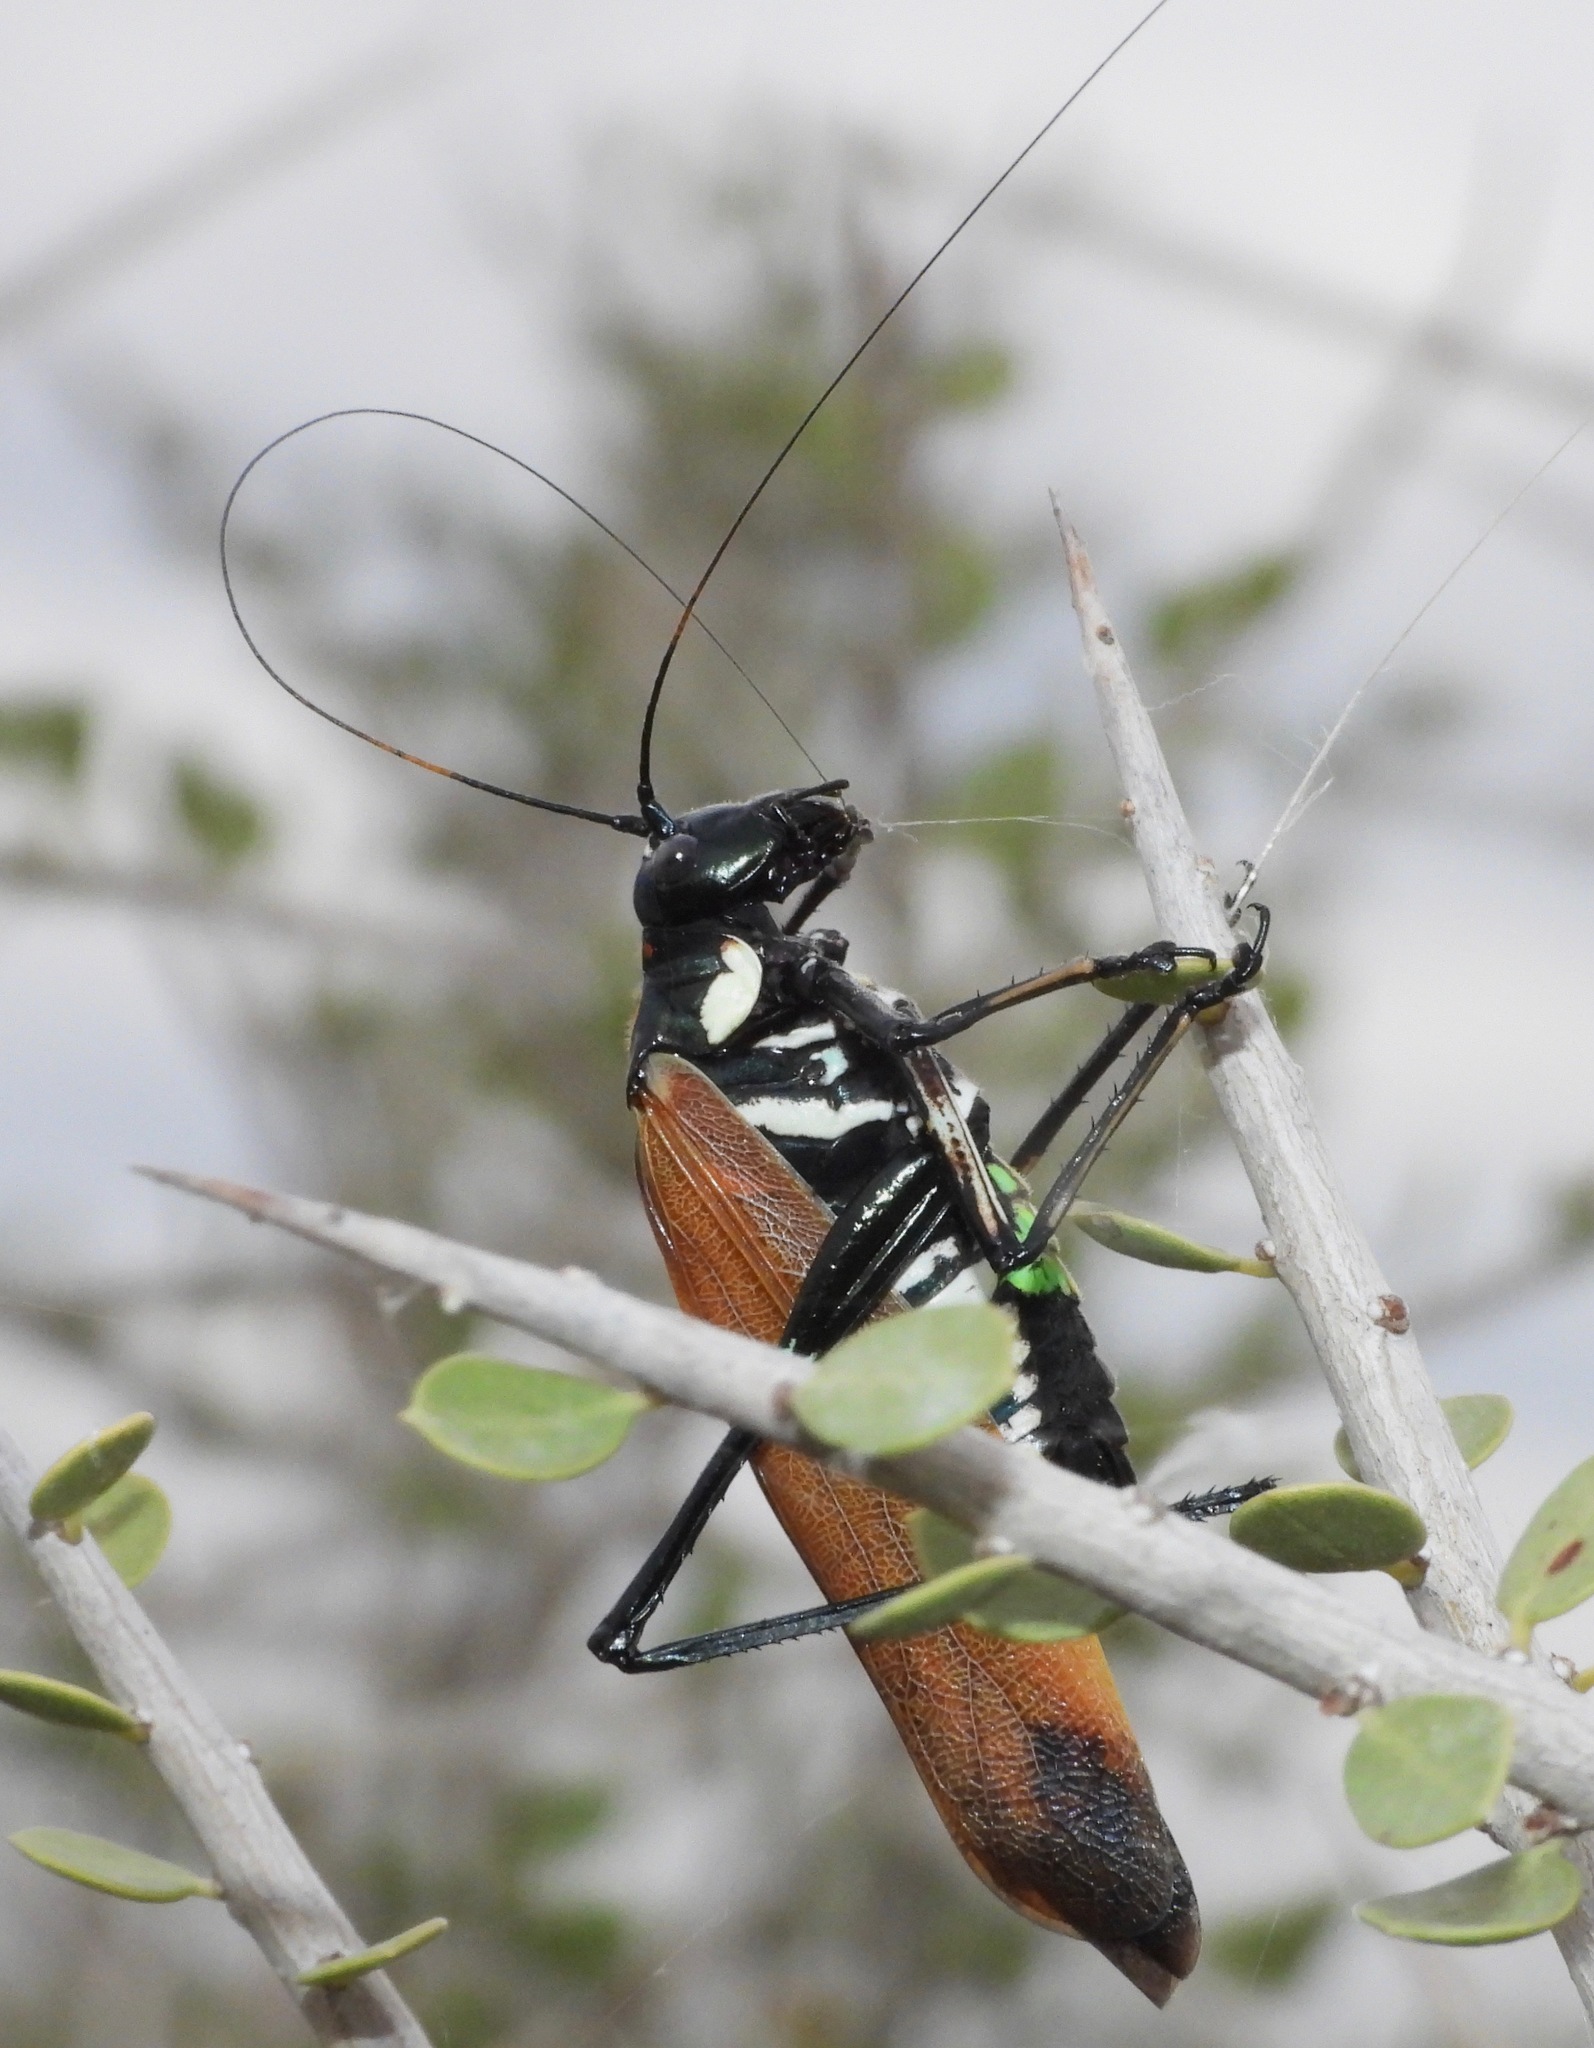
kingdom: Animalia
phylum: Arthropoda
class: Insecta
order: Orthoptera
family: Tettigoniidae
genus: Scaphura
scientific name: Scaphura elegans
